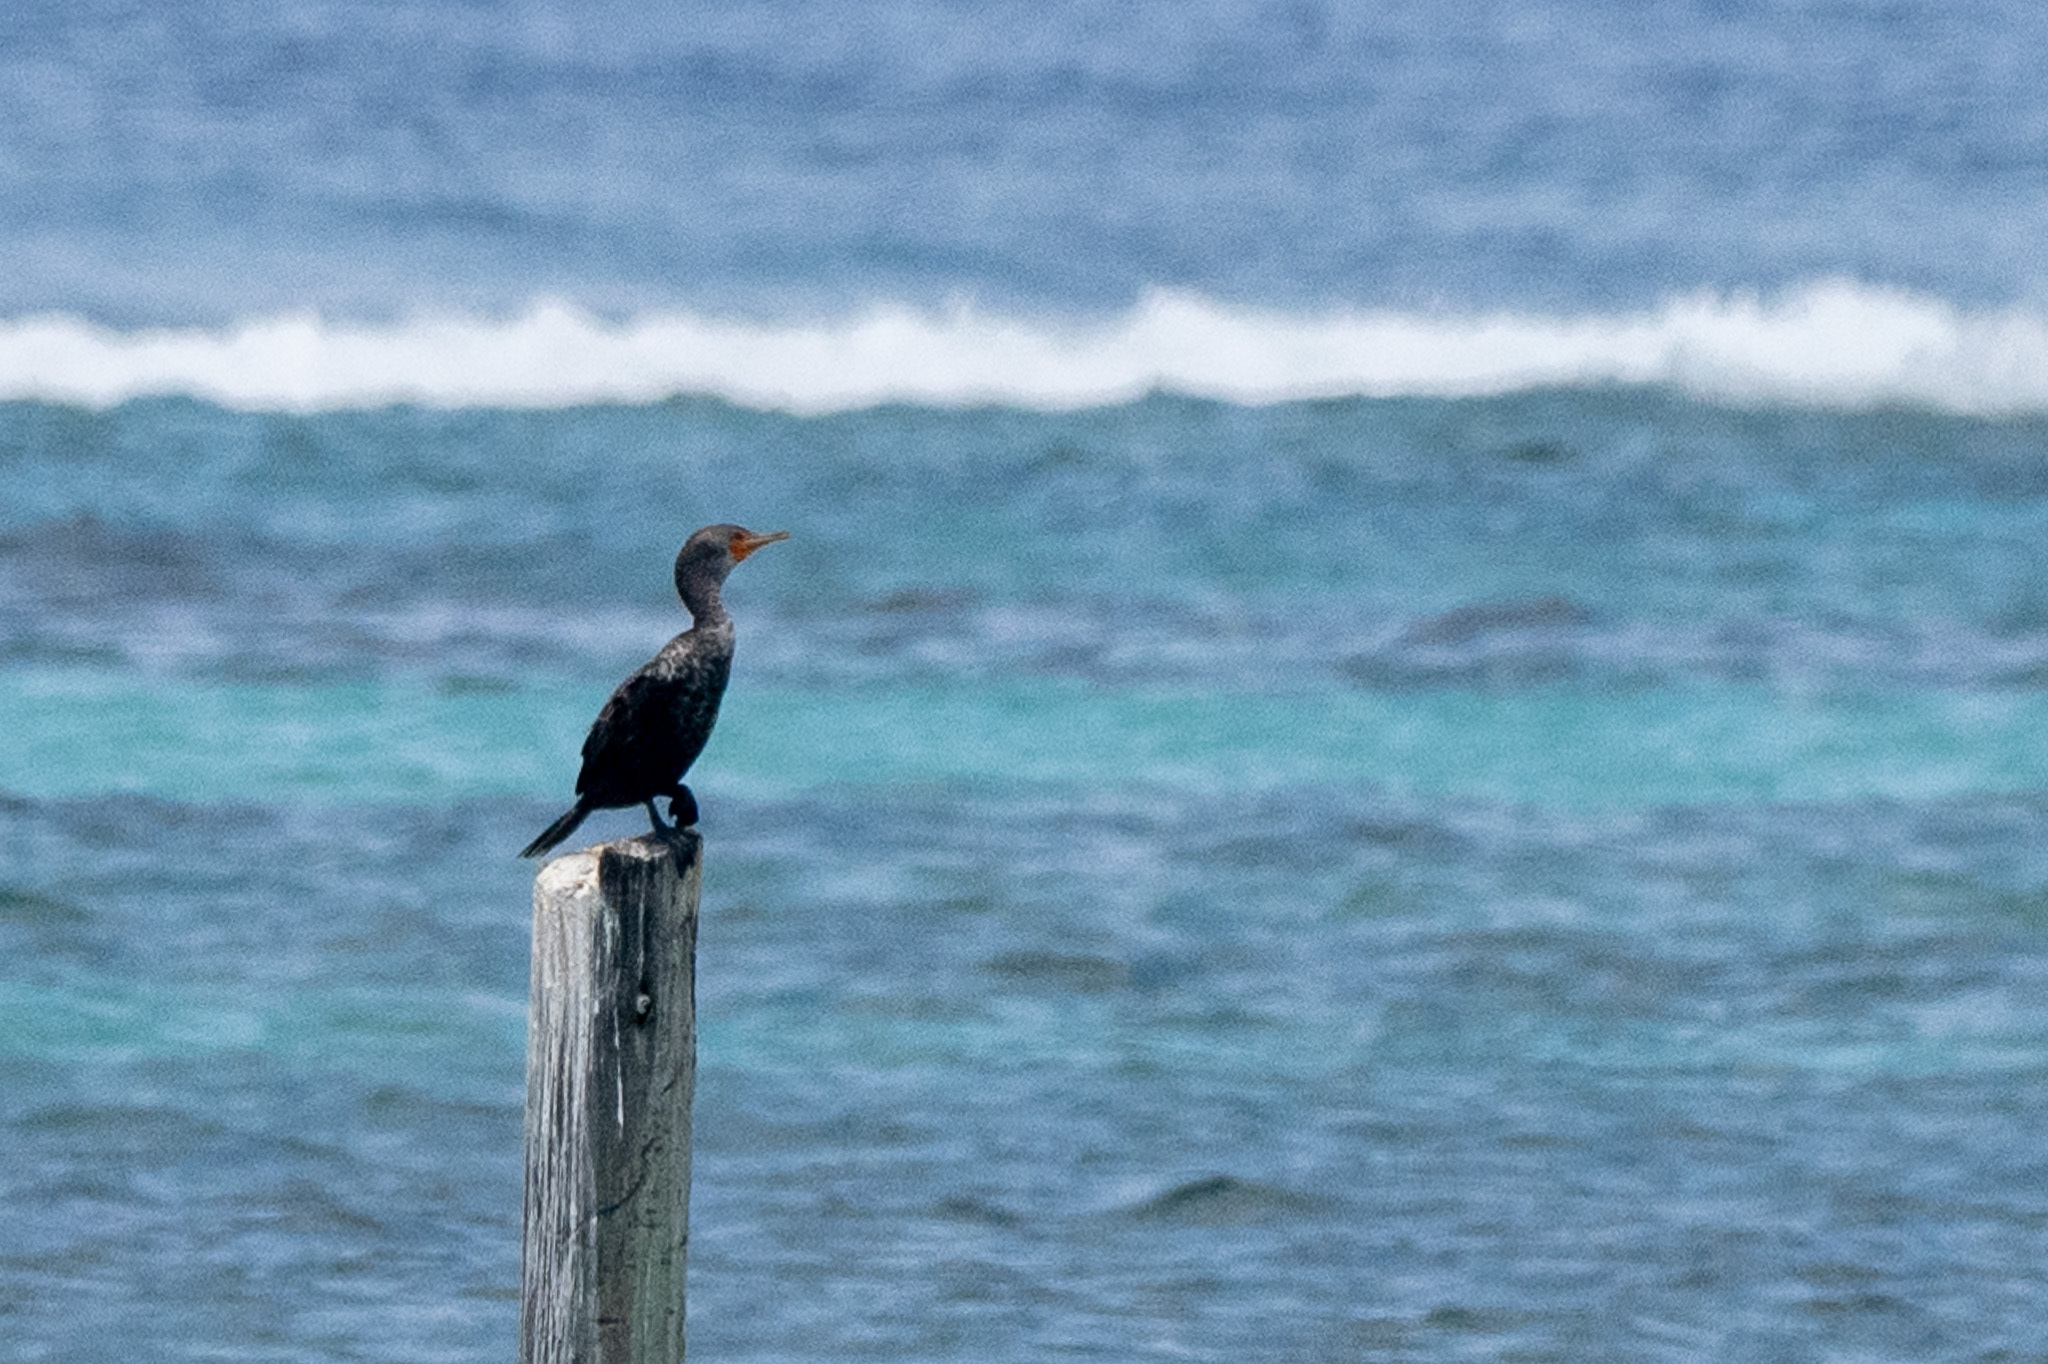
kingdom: Animalia
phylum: Chordata
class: Aves
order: Suliformes
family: Phalacrocoracidae
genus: Phalacrocorax
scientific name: Phalacrocorax auritus
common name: Double-crested cormorant
